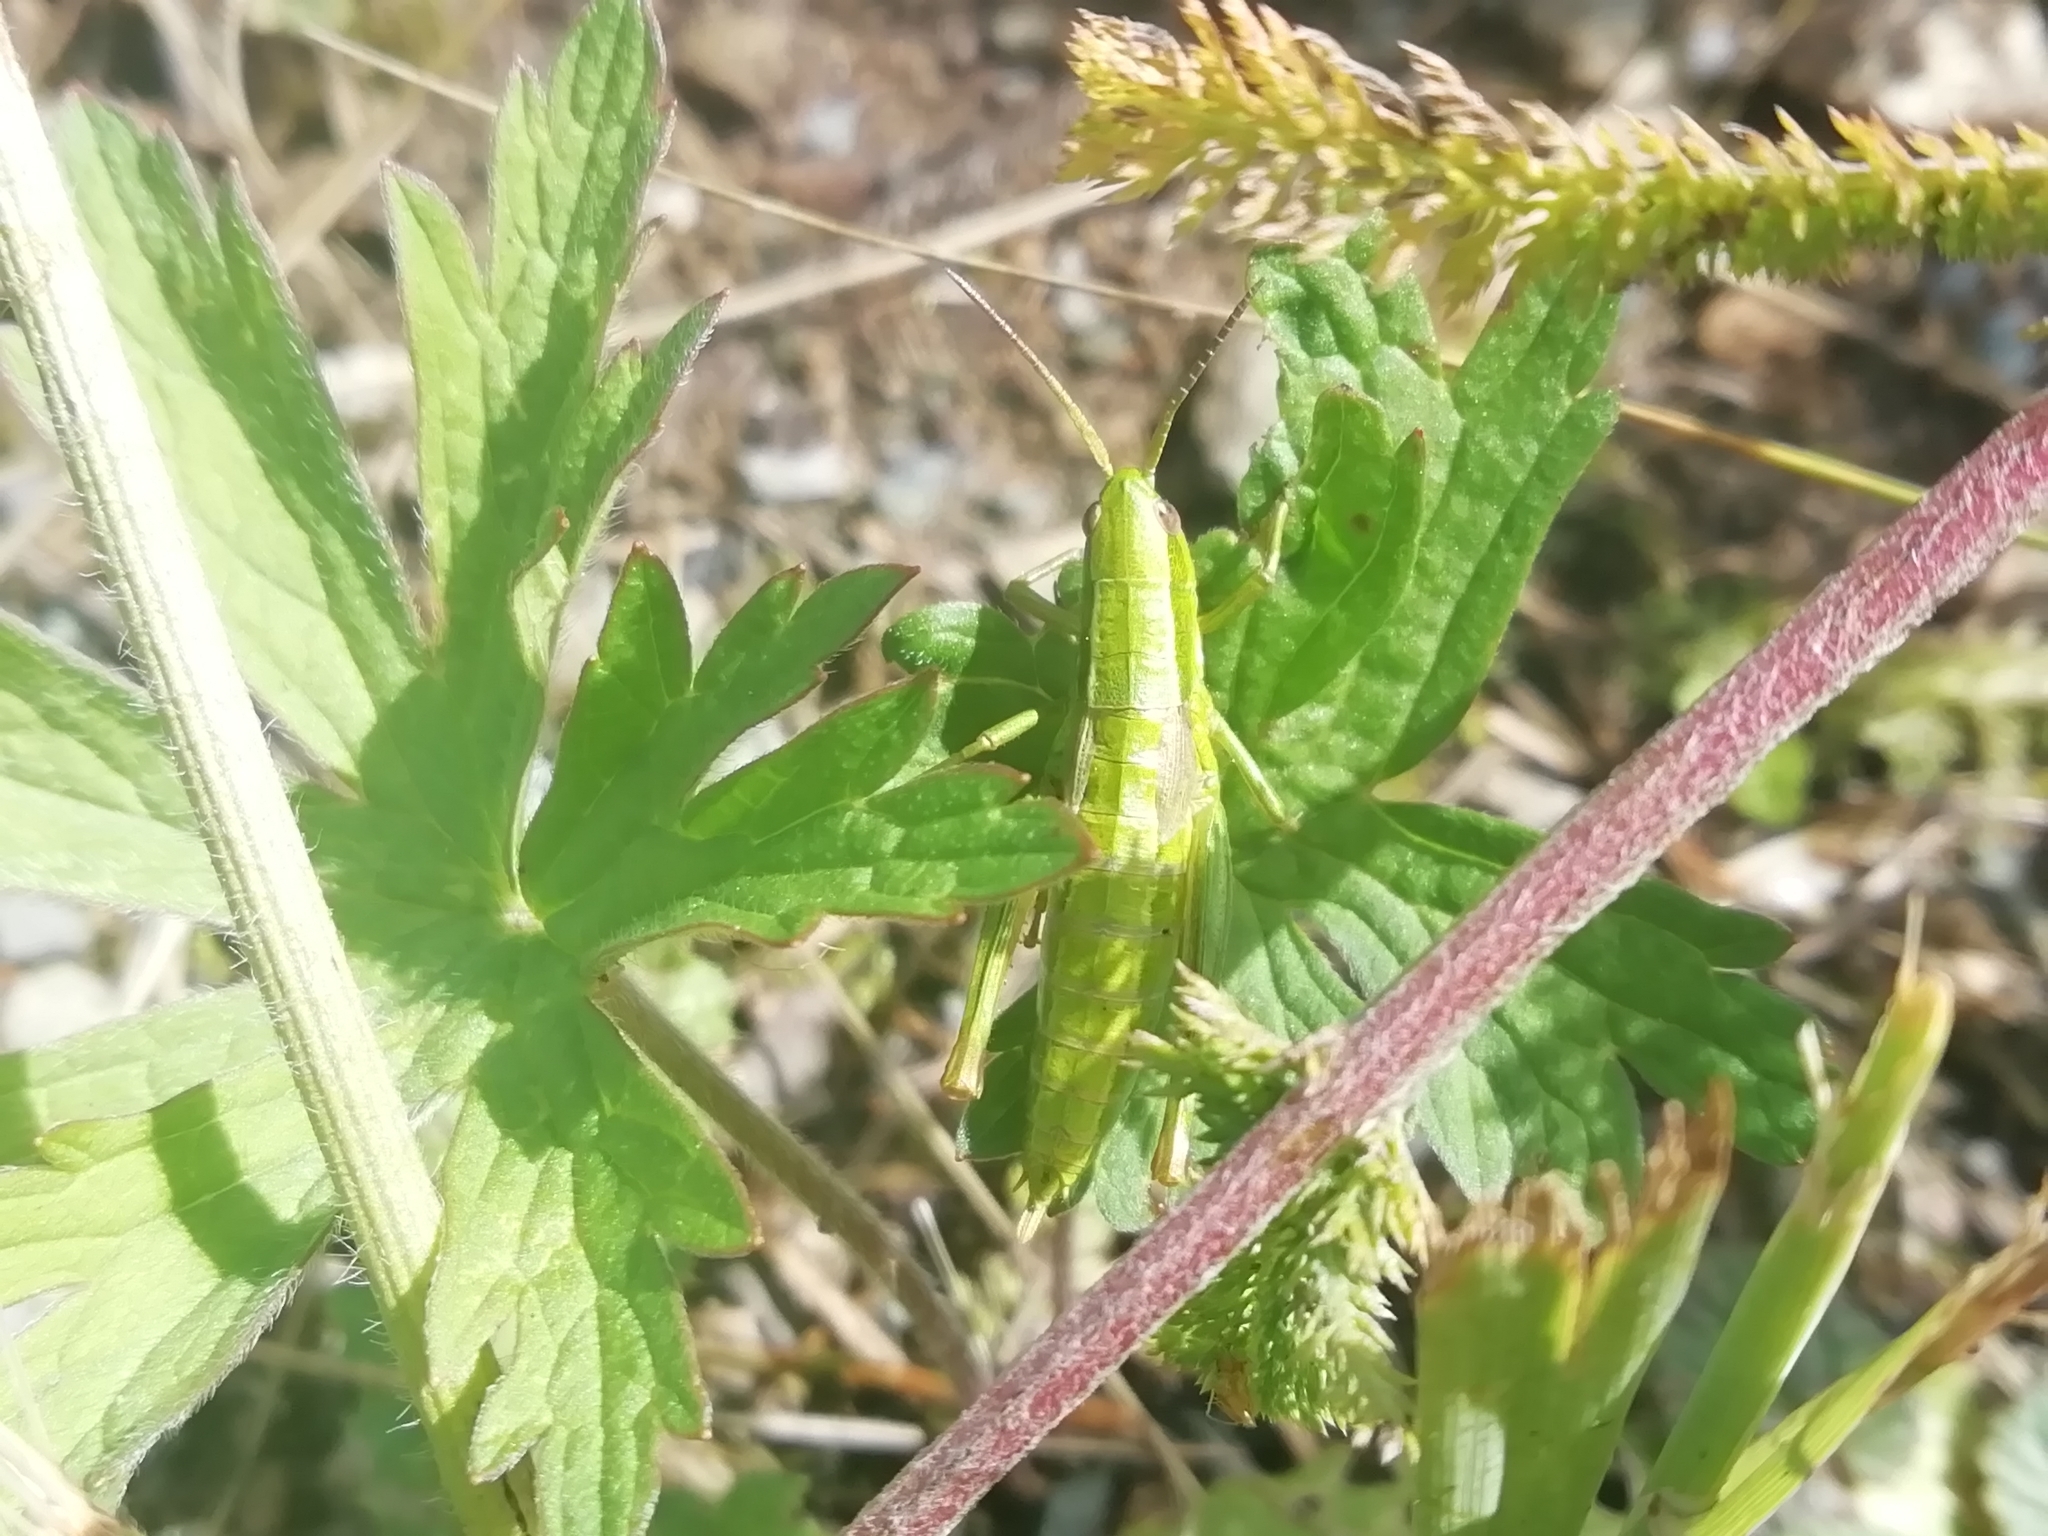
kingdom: Animalia
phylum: Arthropoda
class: Insecta
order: Orthoptera
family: Acrididae
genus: Euthystira
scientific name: Euthystira brachyptera
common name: Small gold grasshopper
